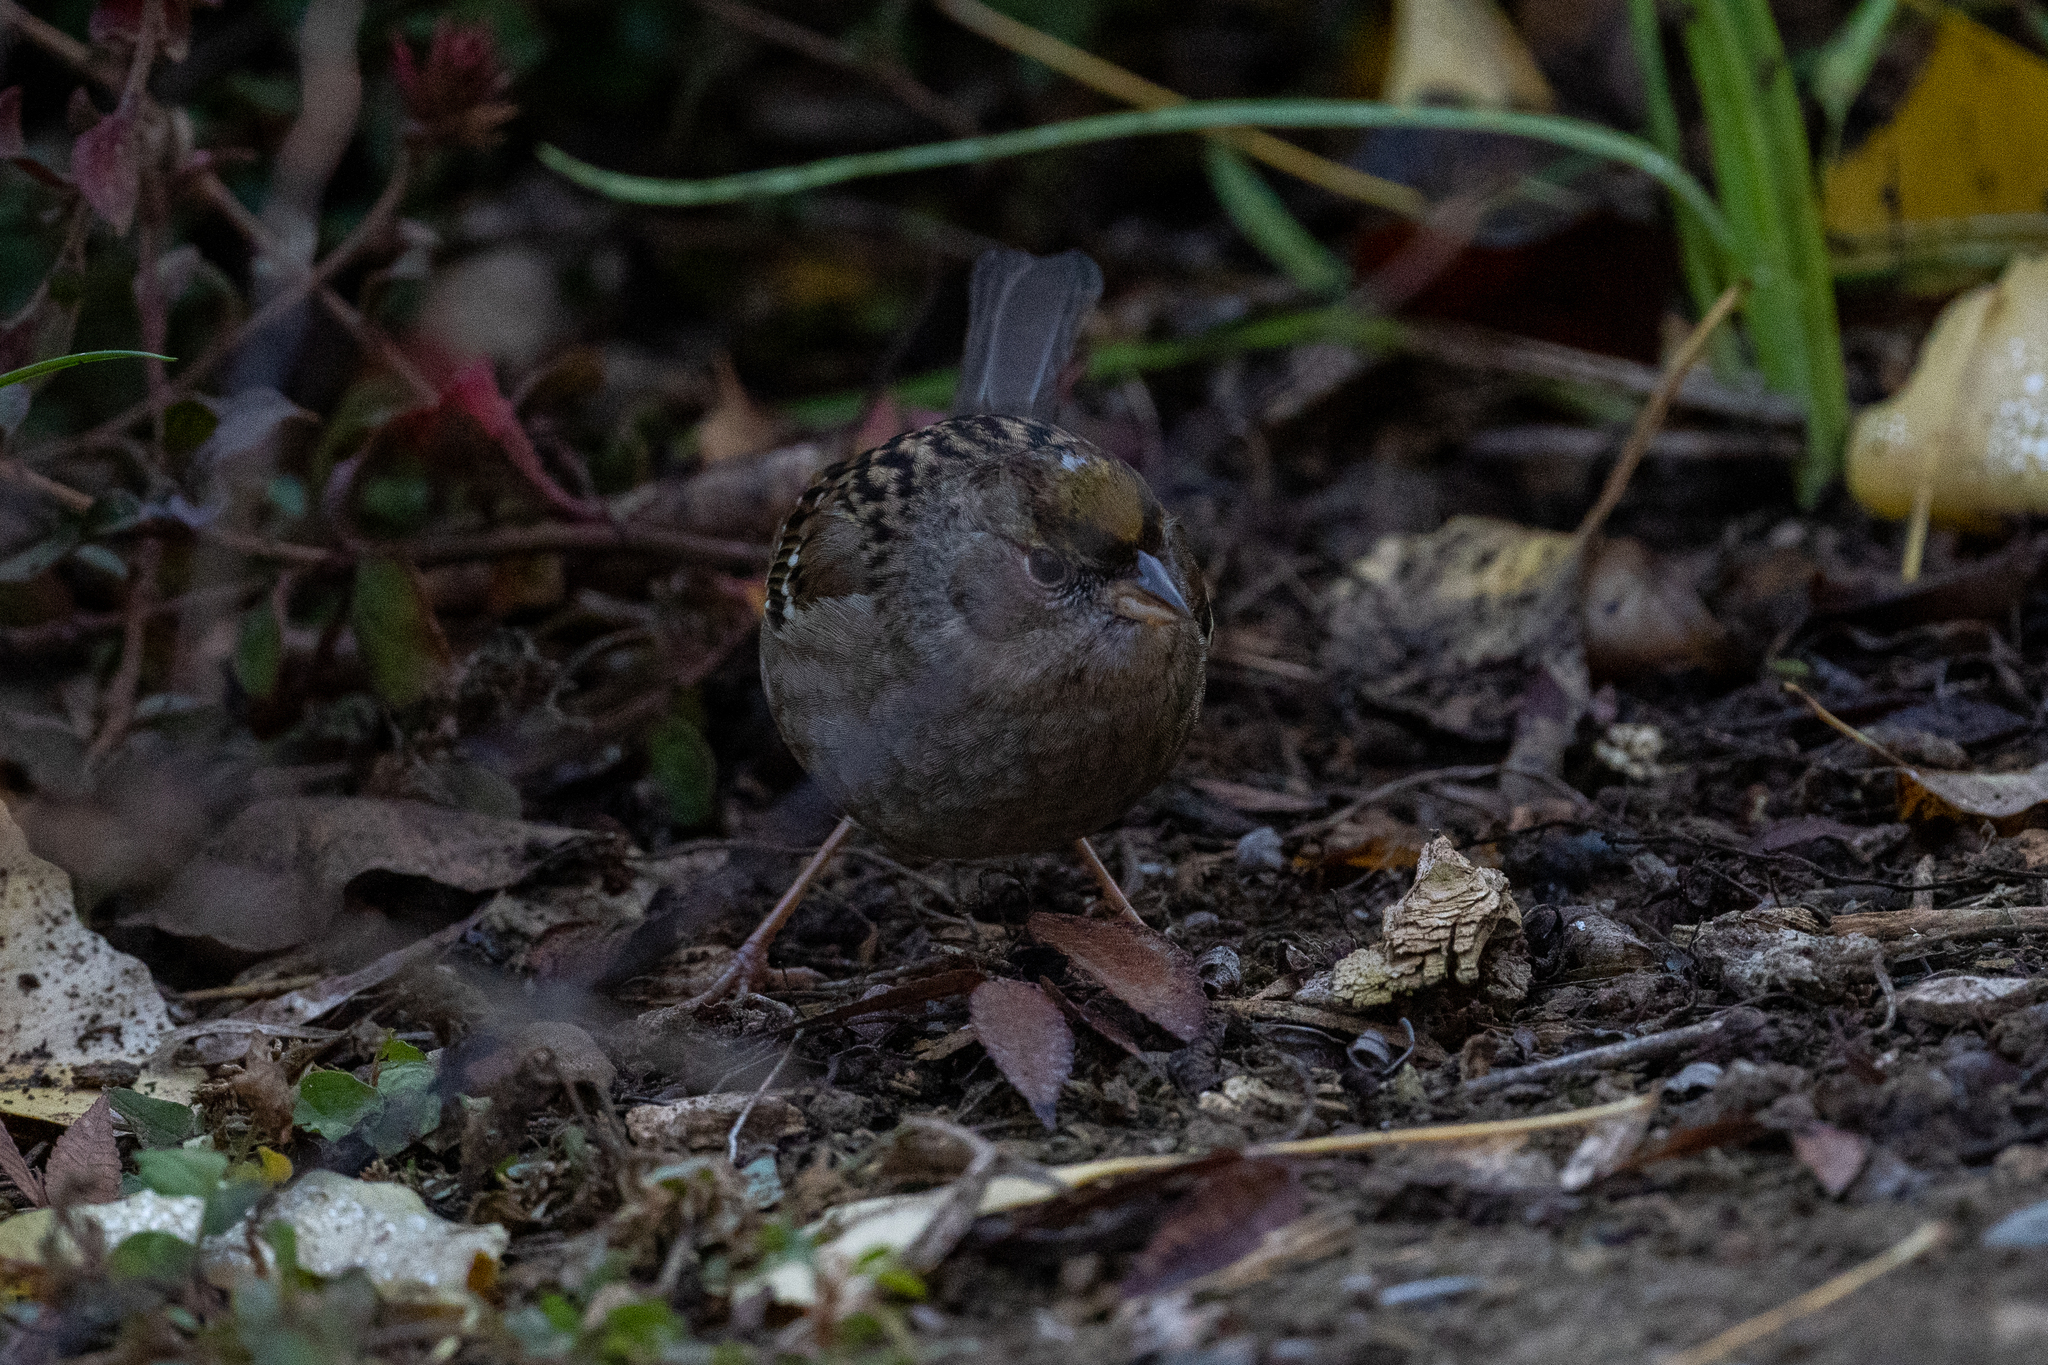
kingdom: Animalia
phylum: Chordata
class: Aves
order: Passeriformes
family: Passerellidae
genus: Zonotrichia
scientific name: Zonotrichia atricapilla
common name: Golden-crowned sparrow
